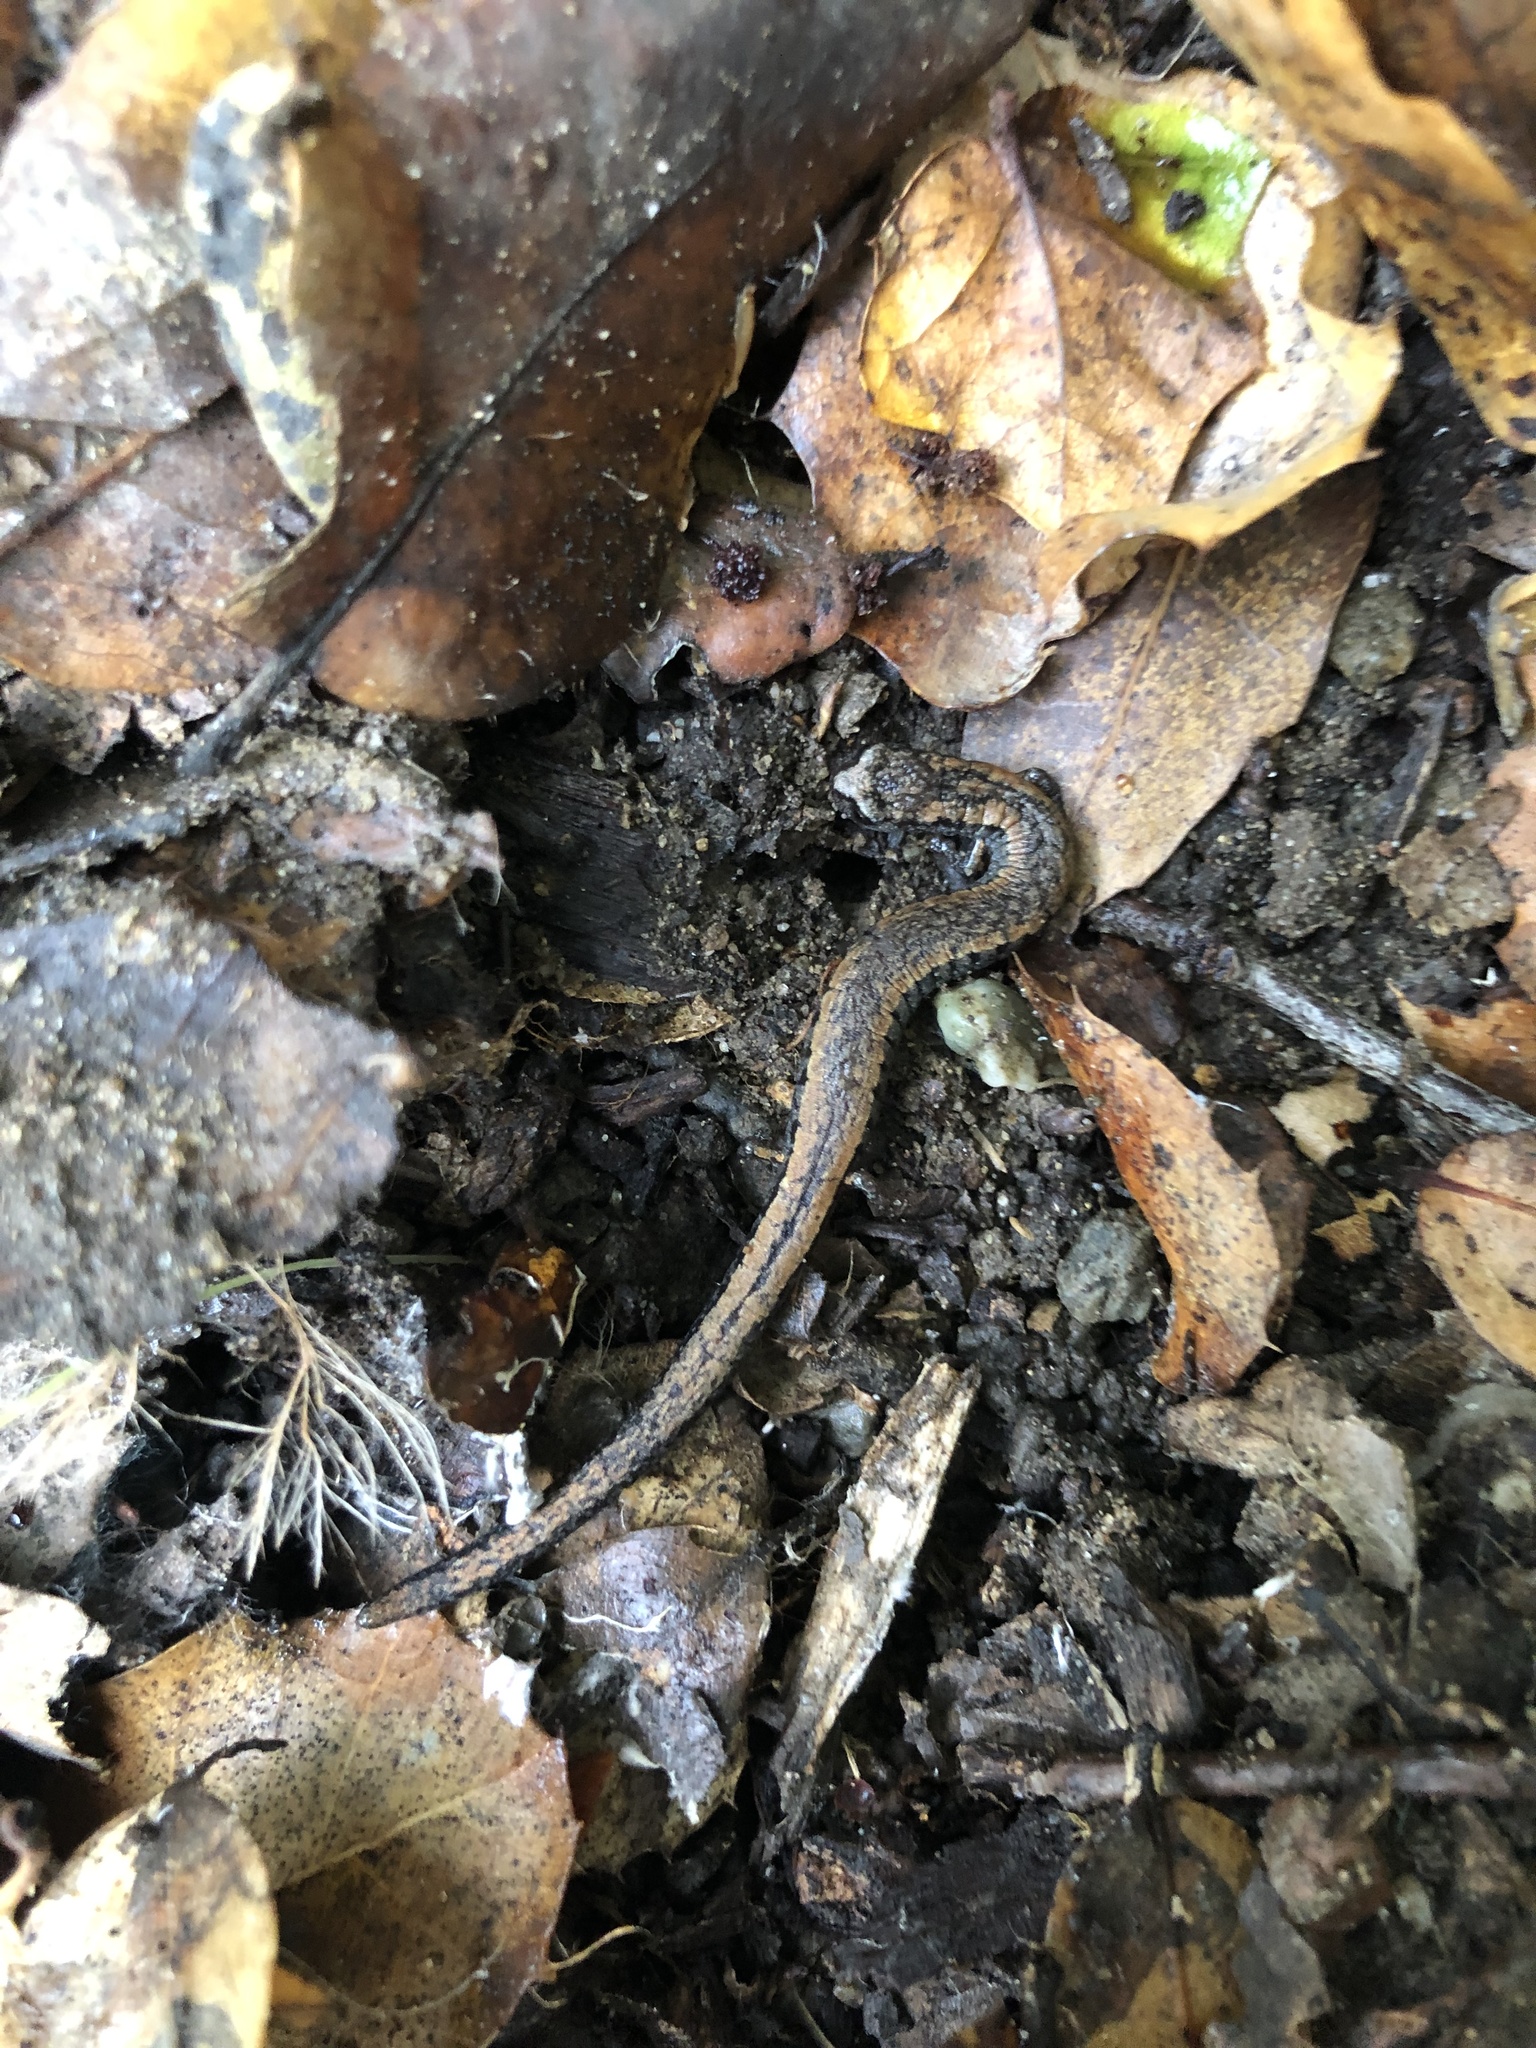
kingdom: Animalia
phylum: Chordata
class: Amphibia
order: Caudata
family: Plethodontidae
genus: Batrachoseps
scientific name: Batrachoseps attenuatus
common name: California slender salamander
